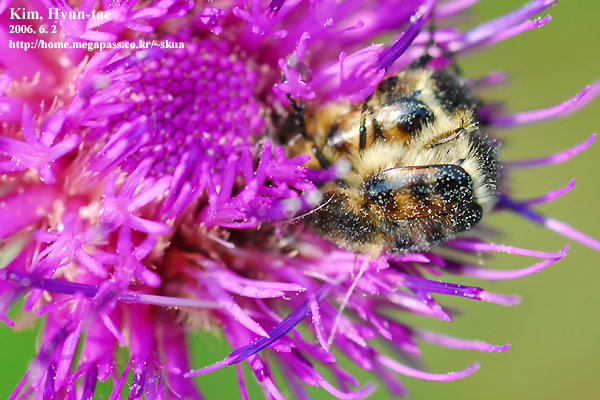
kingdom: Animalia
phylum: Arthropoda
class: Insecta
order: Coleoptera
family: Scarabaeidae
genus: Lasiotrichius
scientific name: Lasiotrichius succinctus
